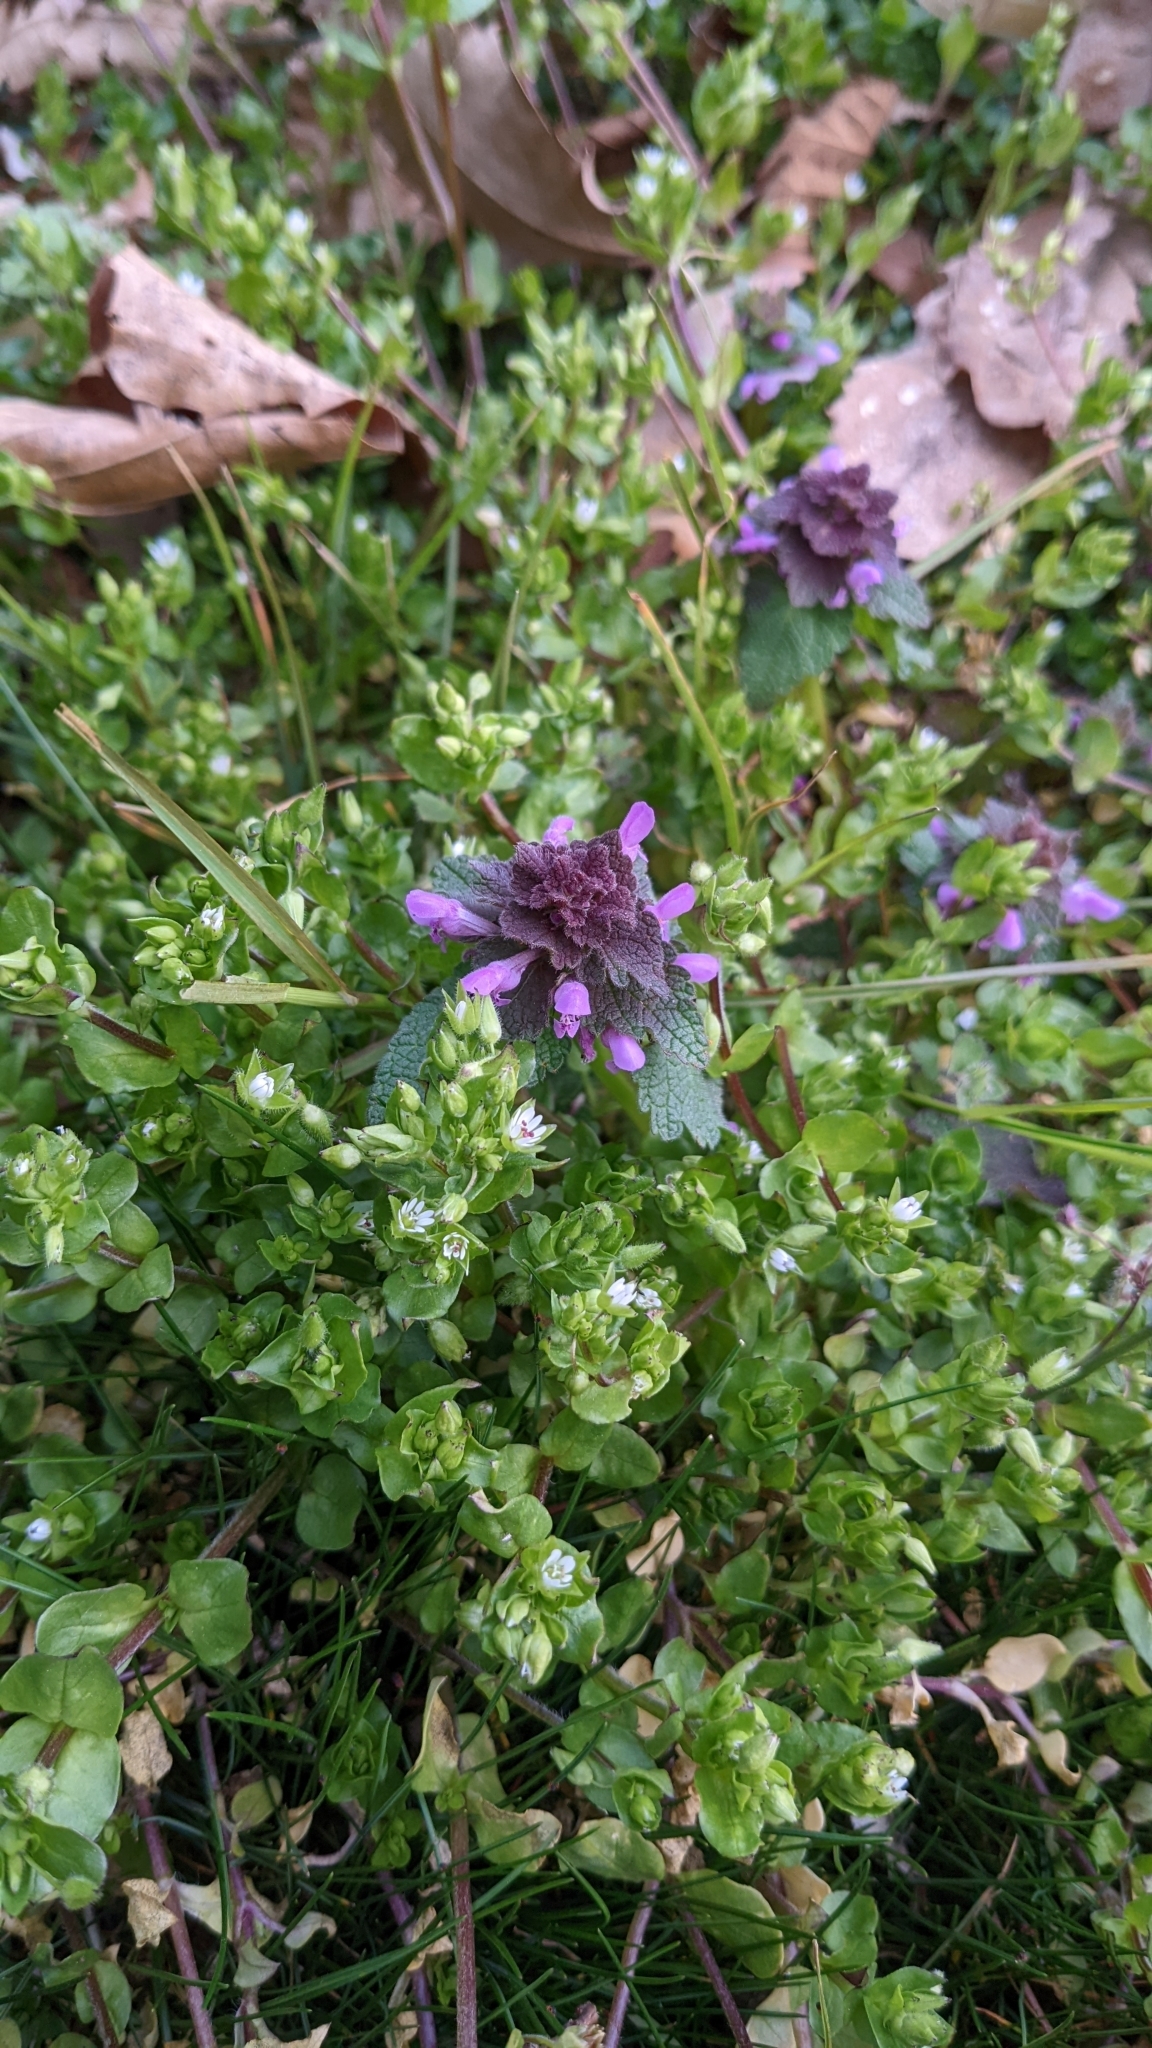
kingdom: Plantae
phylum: Tracheophyta
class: Magnoliopsida
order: Lamiales
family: Lamiaceae
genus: Lamium
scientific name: Lamium purpureum
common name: Red dead-nettle
